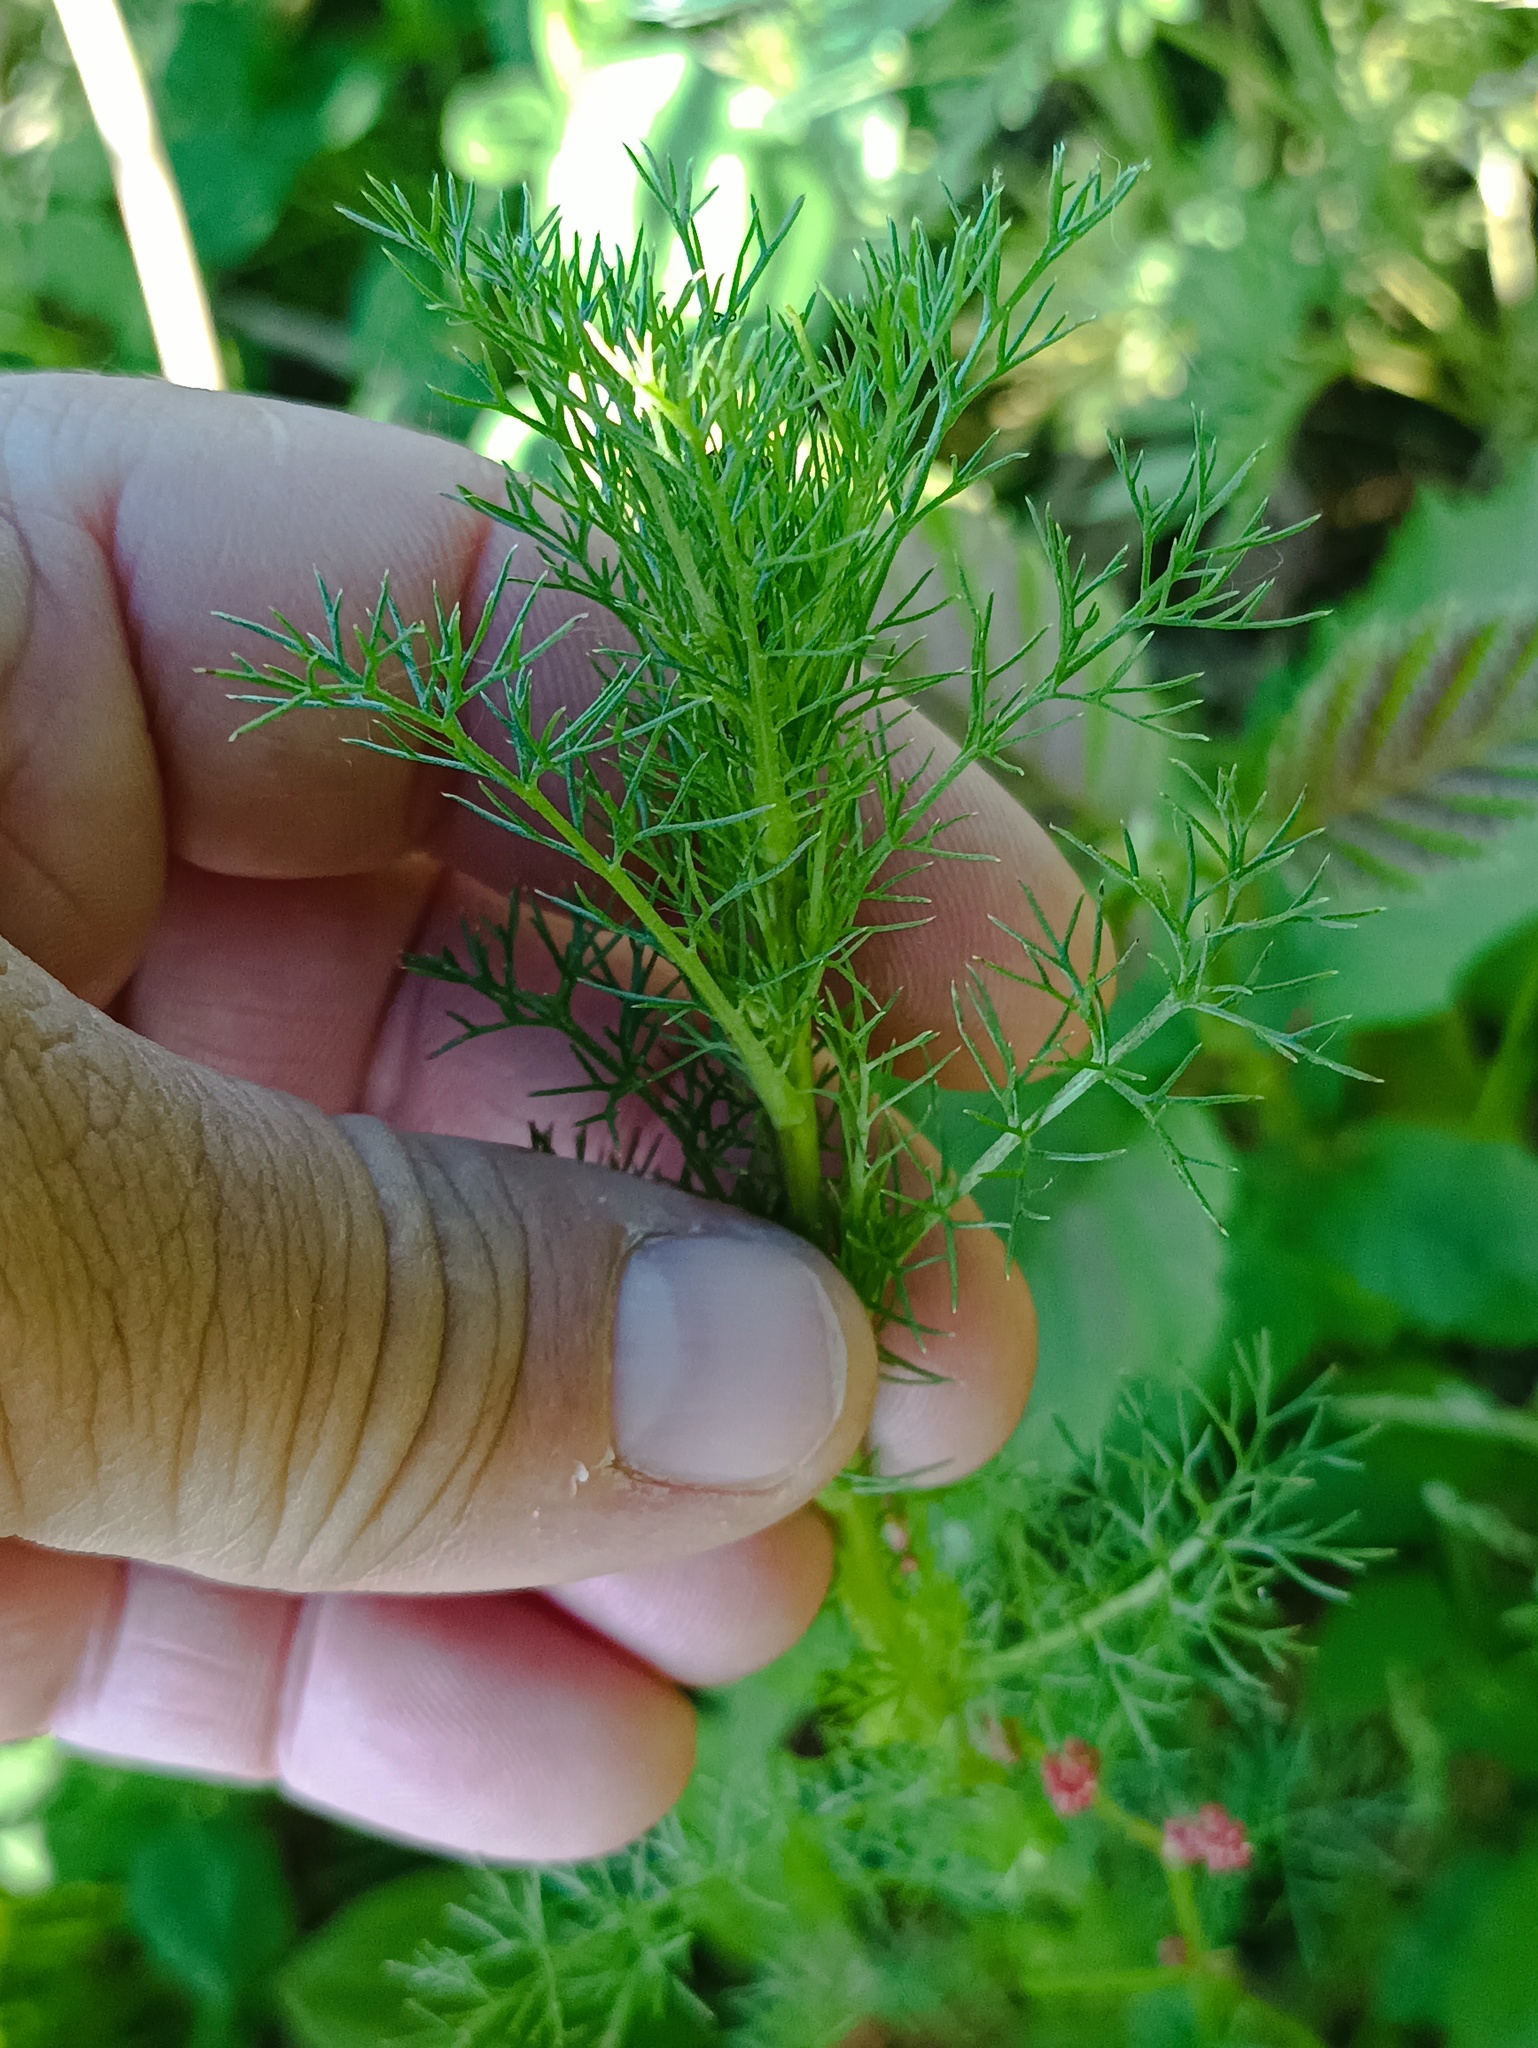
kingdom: Plantae
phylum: Tracheophyta
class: Magnoliopsida
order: Asterales
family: Asteraceae
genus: Tripleurospermum
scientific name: Tripleurospermum inodorum
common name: Scentless mayweed
